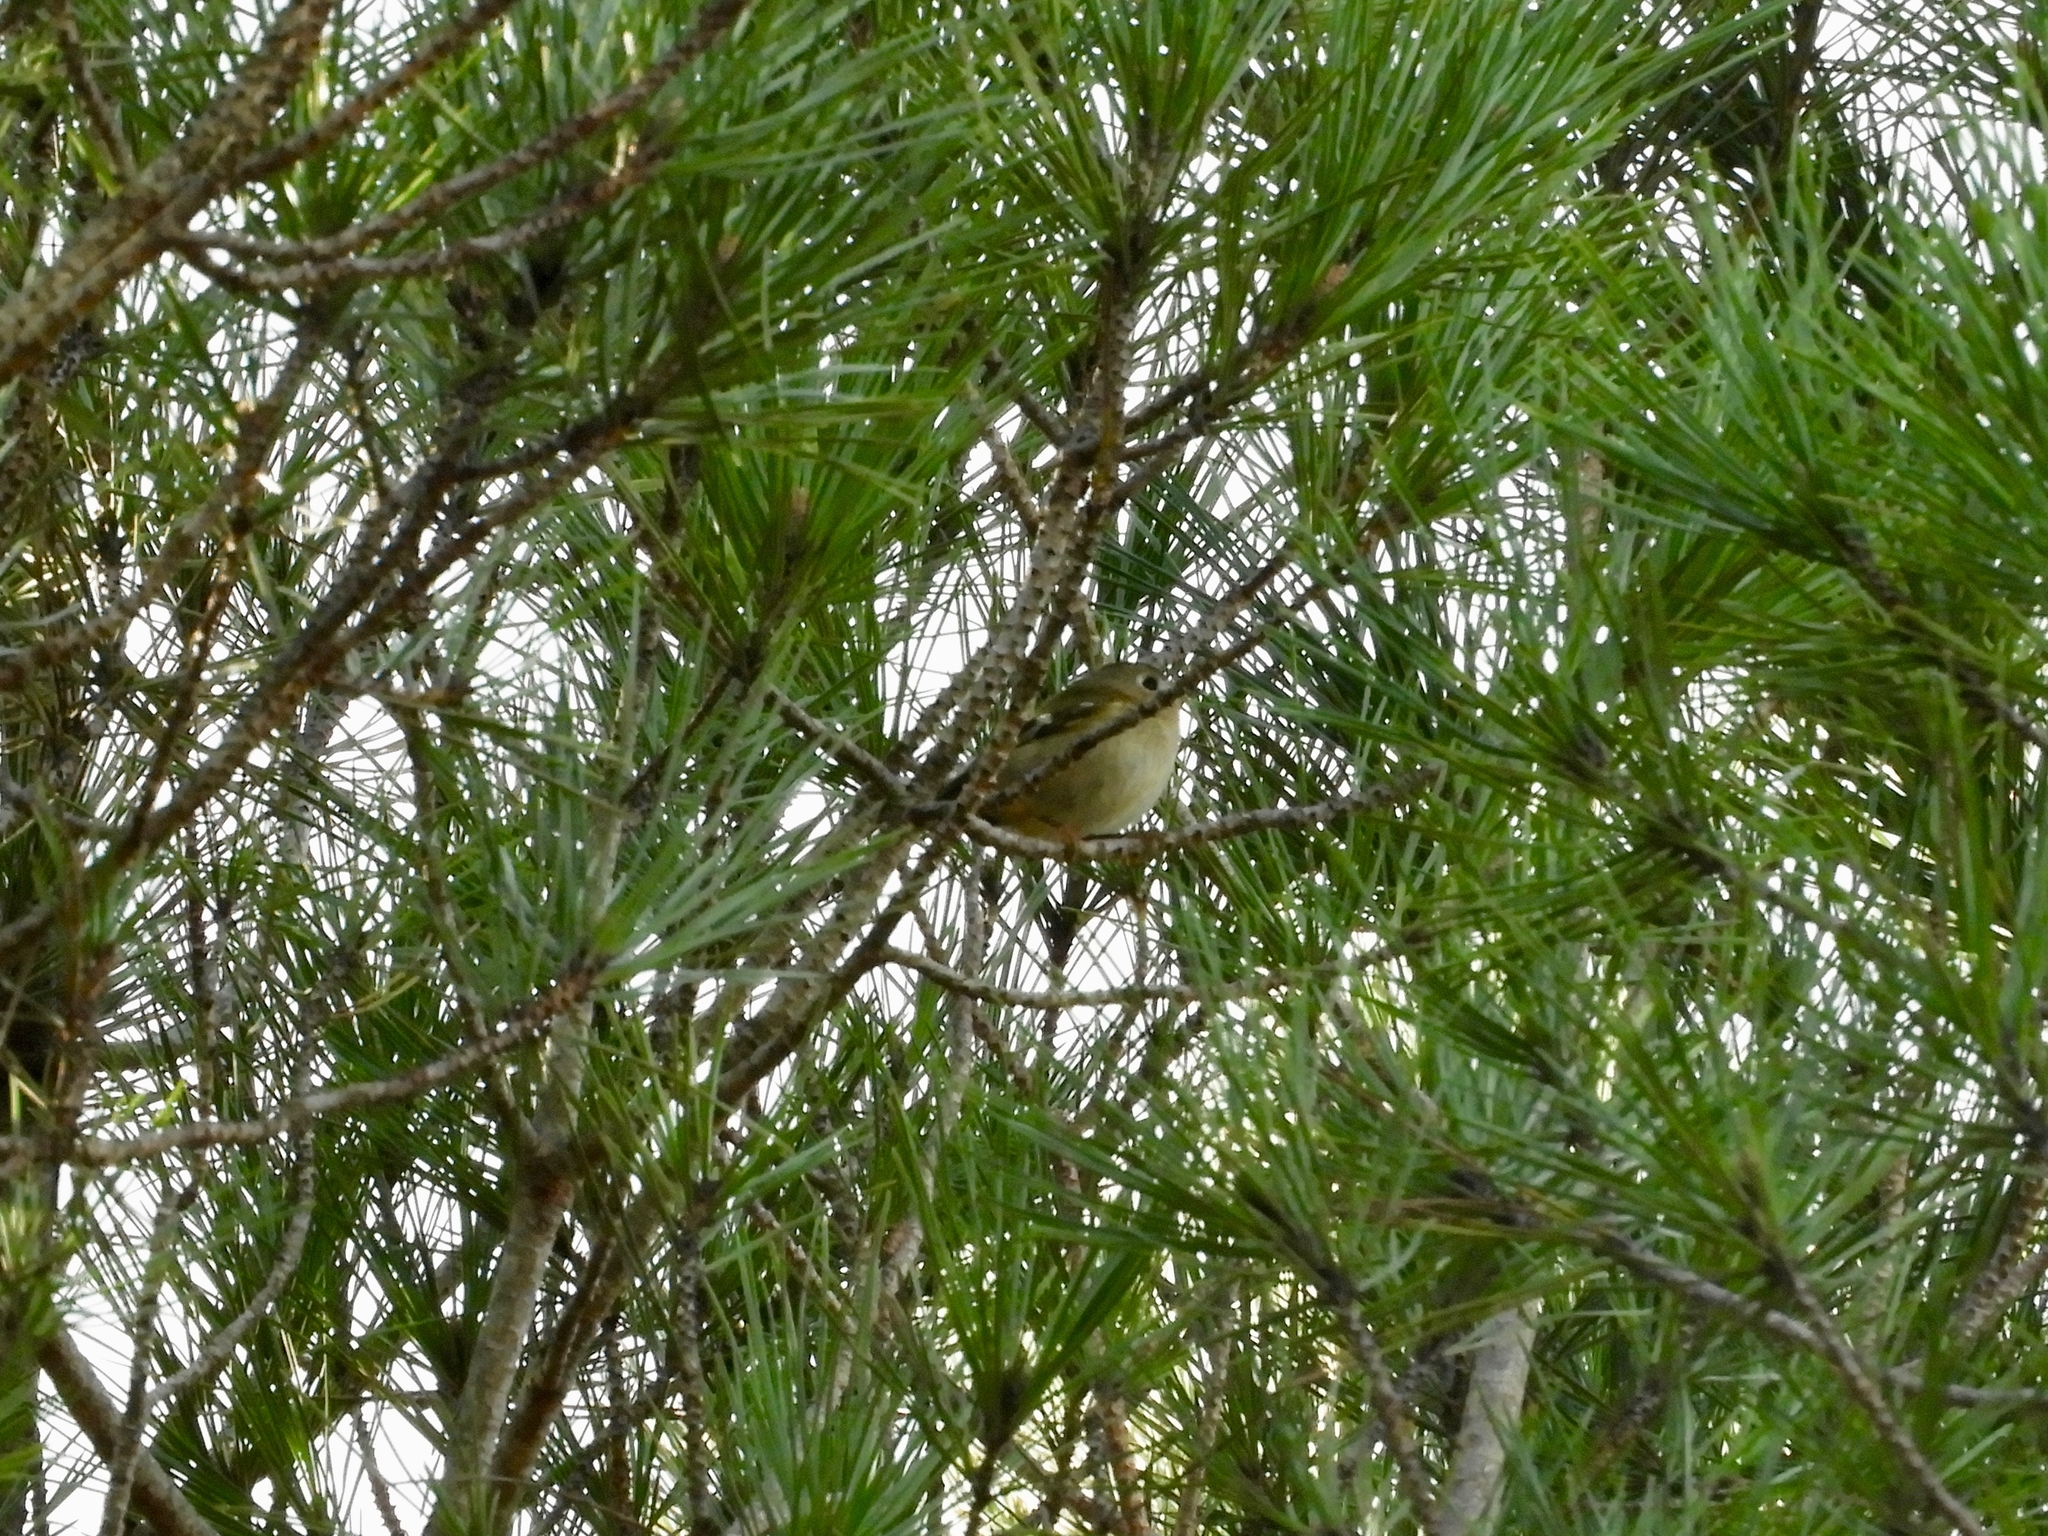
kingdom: Animalia
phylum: Chordata
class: Aves
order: Passeriformes
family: Regulidae
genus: Regulus
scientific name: Regulus regulus
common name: Goldcrest
